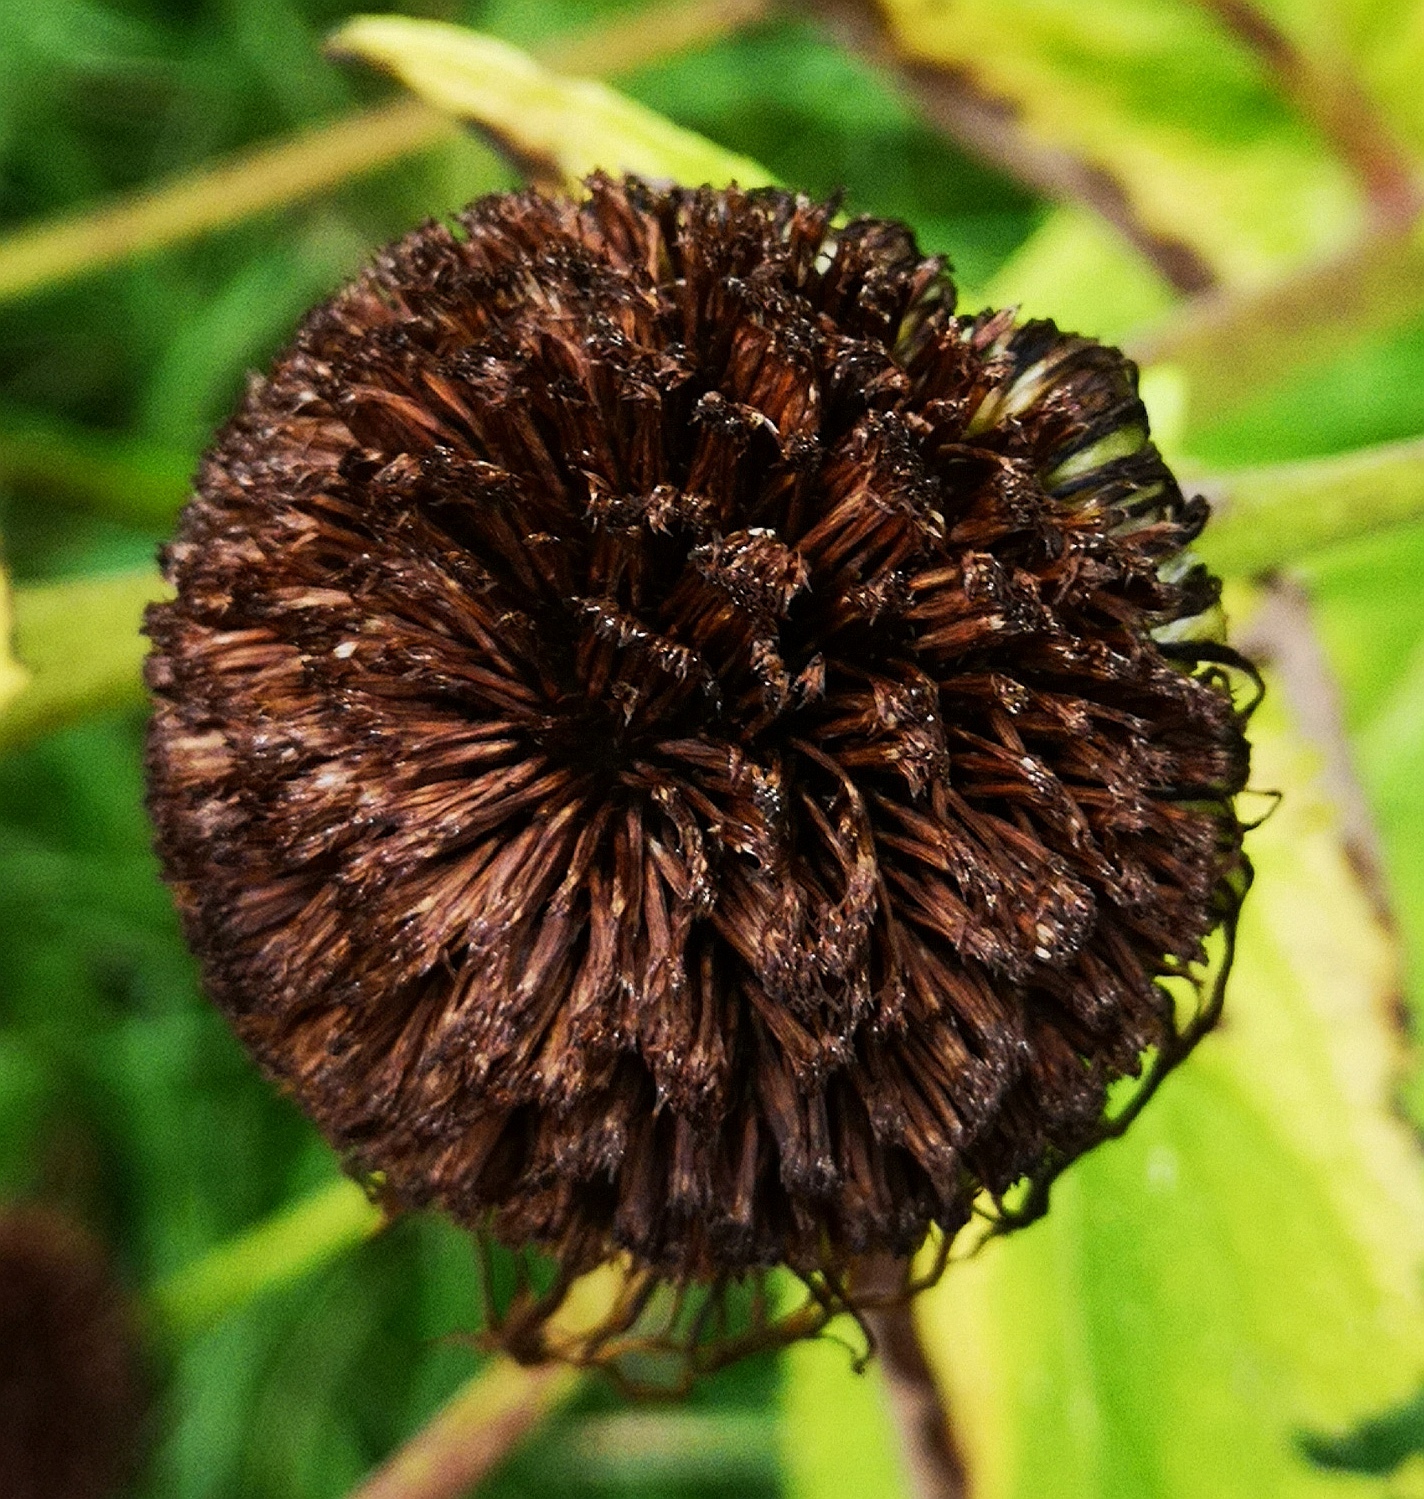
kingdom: Plantae
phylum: Tracheophyta
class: Magnoliopsida
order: Asterales
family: Asteraceae
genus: Telekia
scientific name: Telekia speciosa
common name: Yellow oxeye
